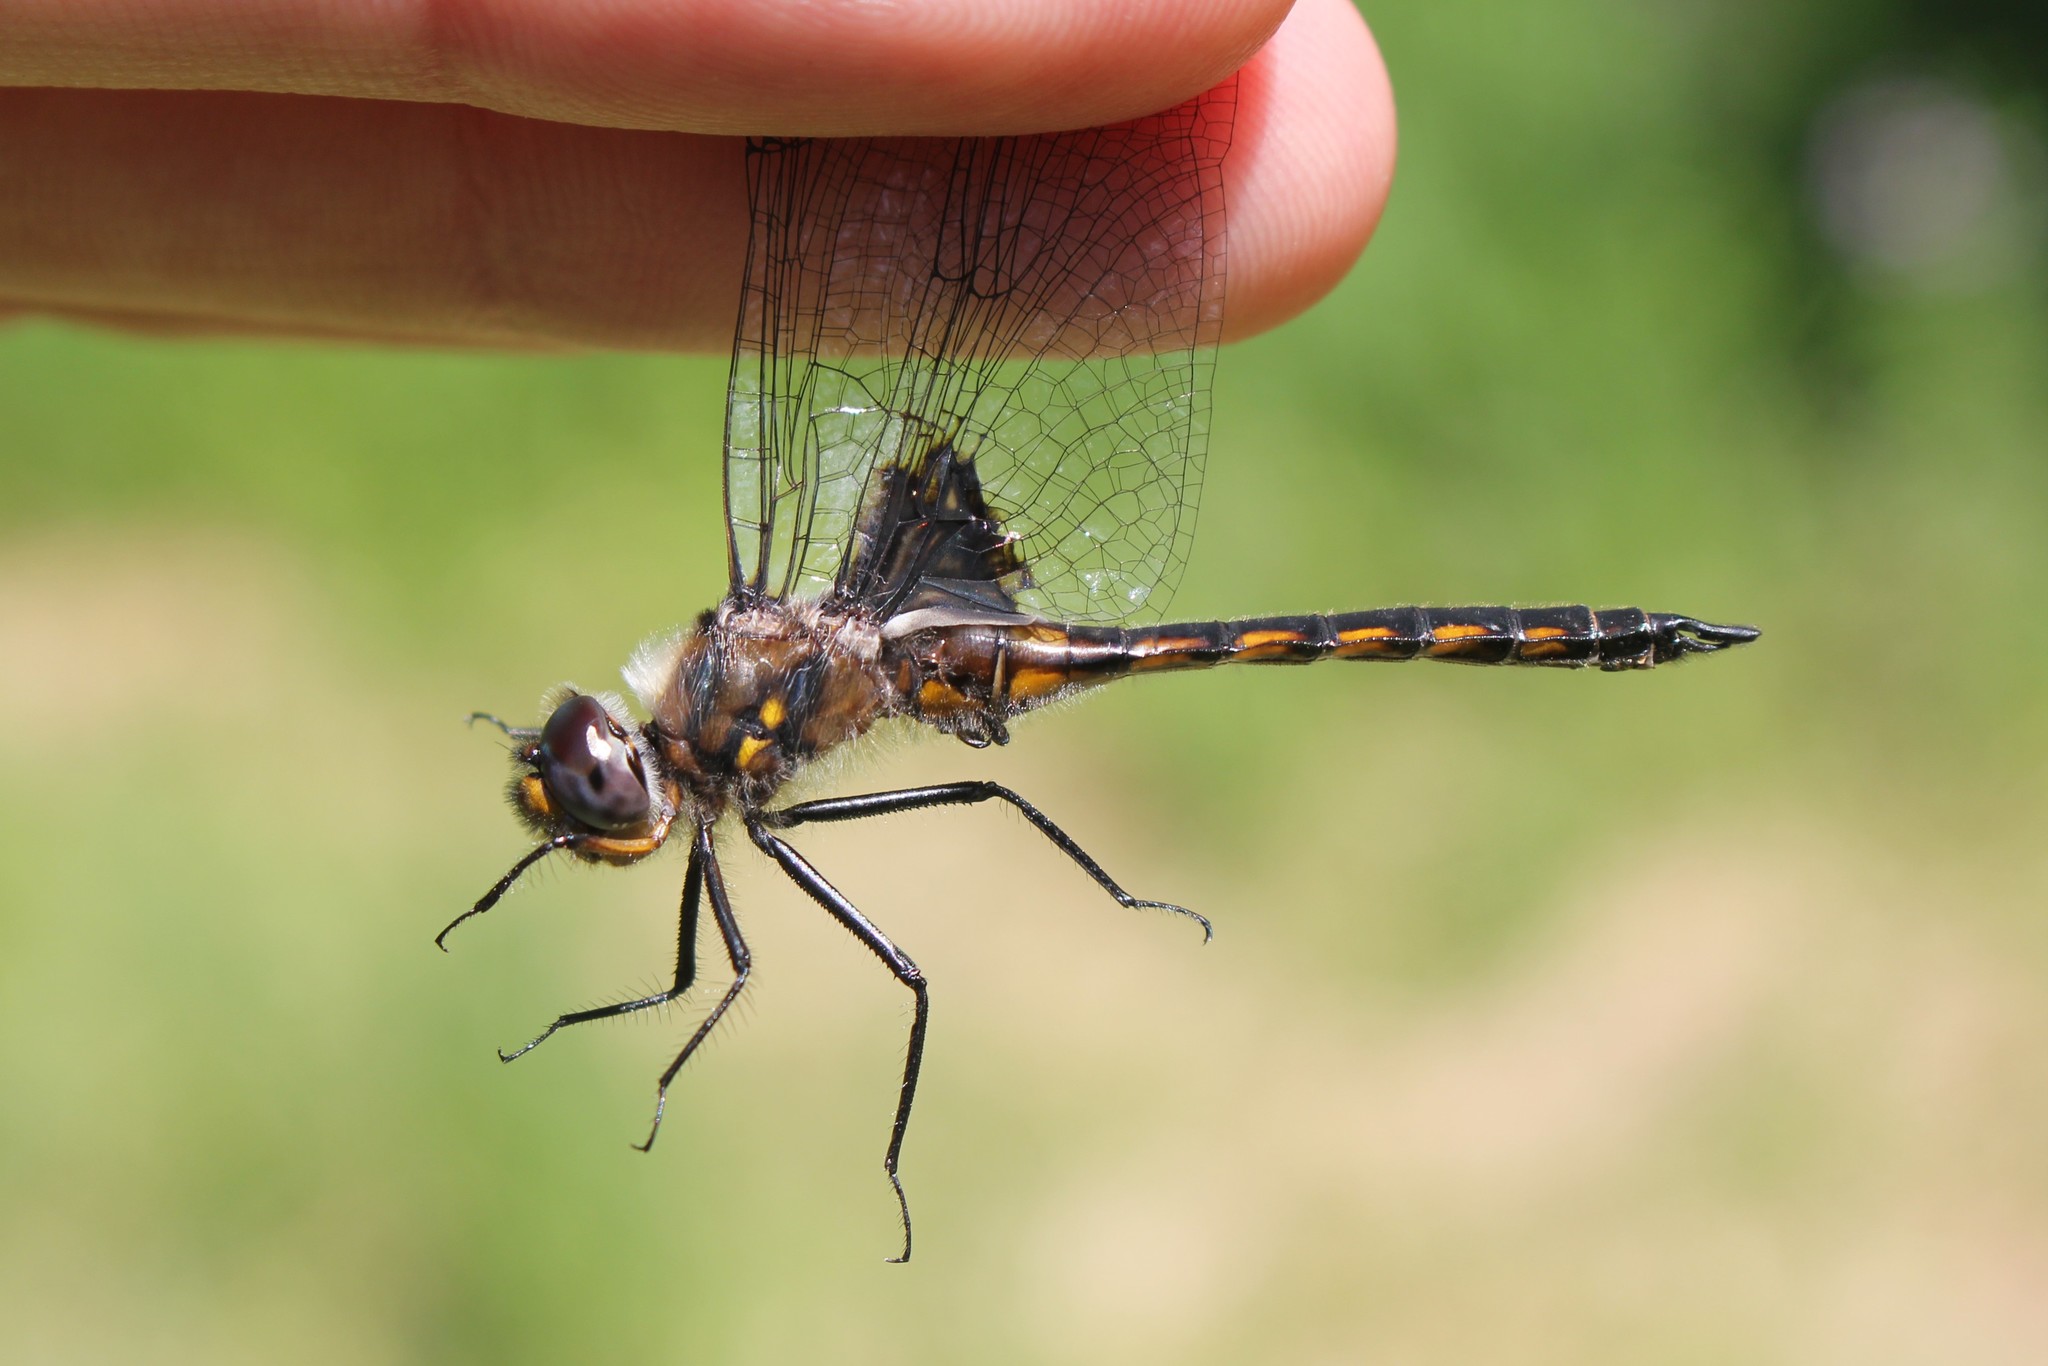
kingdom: Animalia
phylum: Arthropoda
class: Insecta
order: Odonata
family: Corduliidae
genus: Epitheca
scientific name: Epitheca cynosura
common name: Common baskettail
